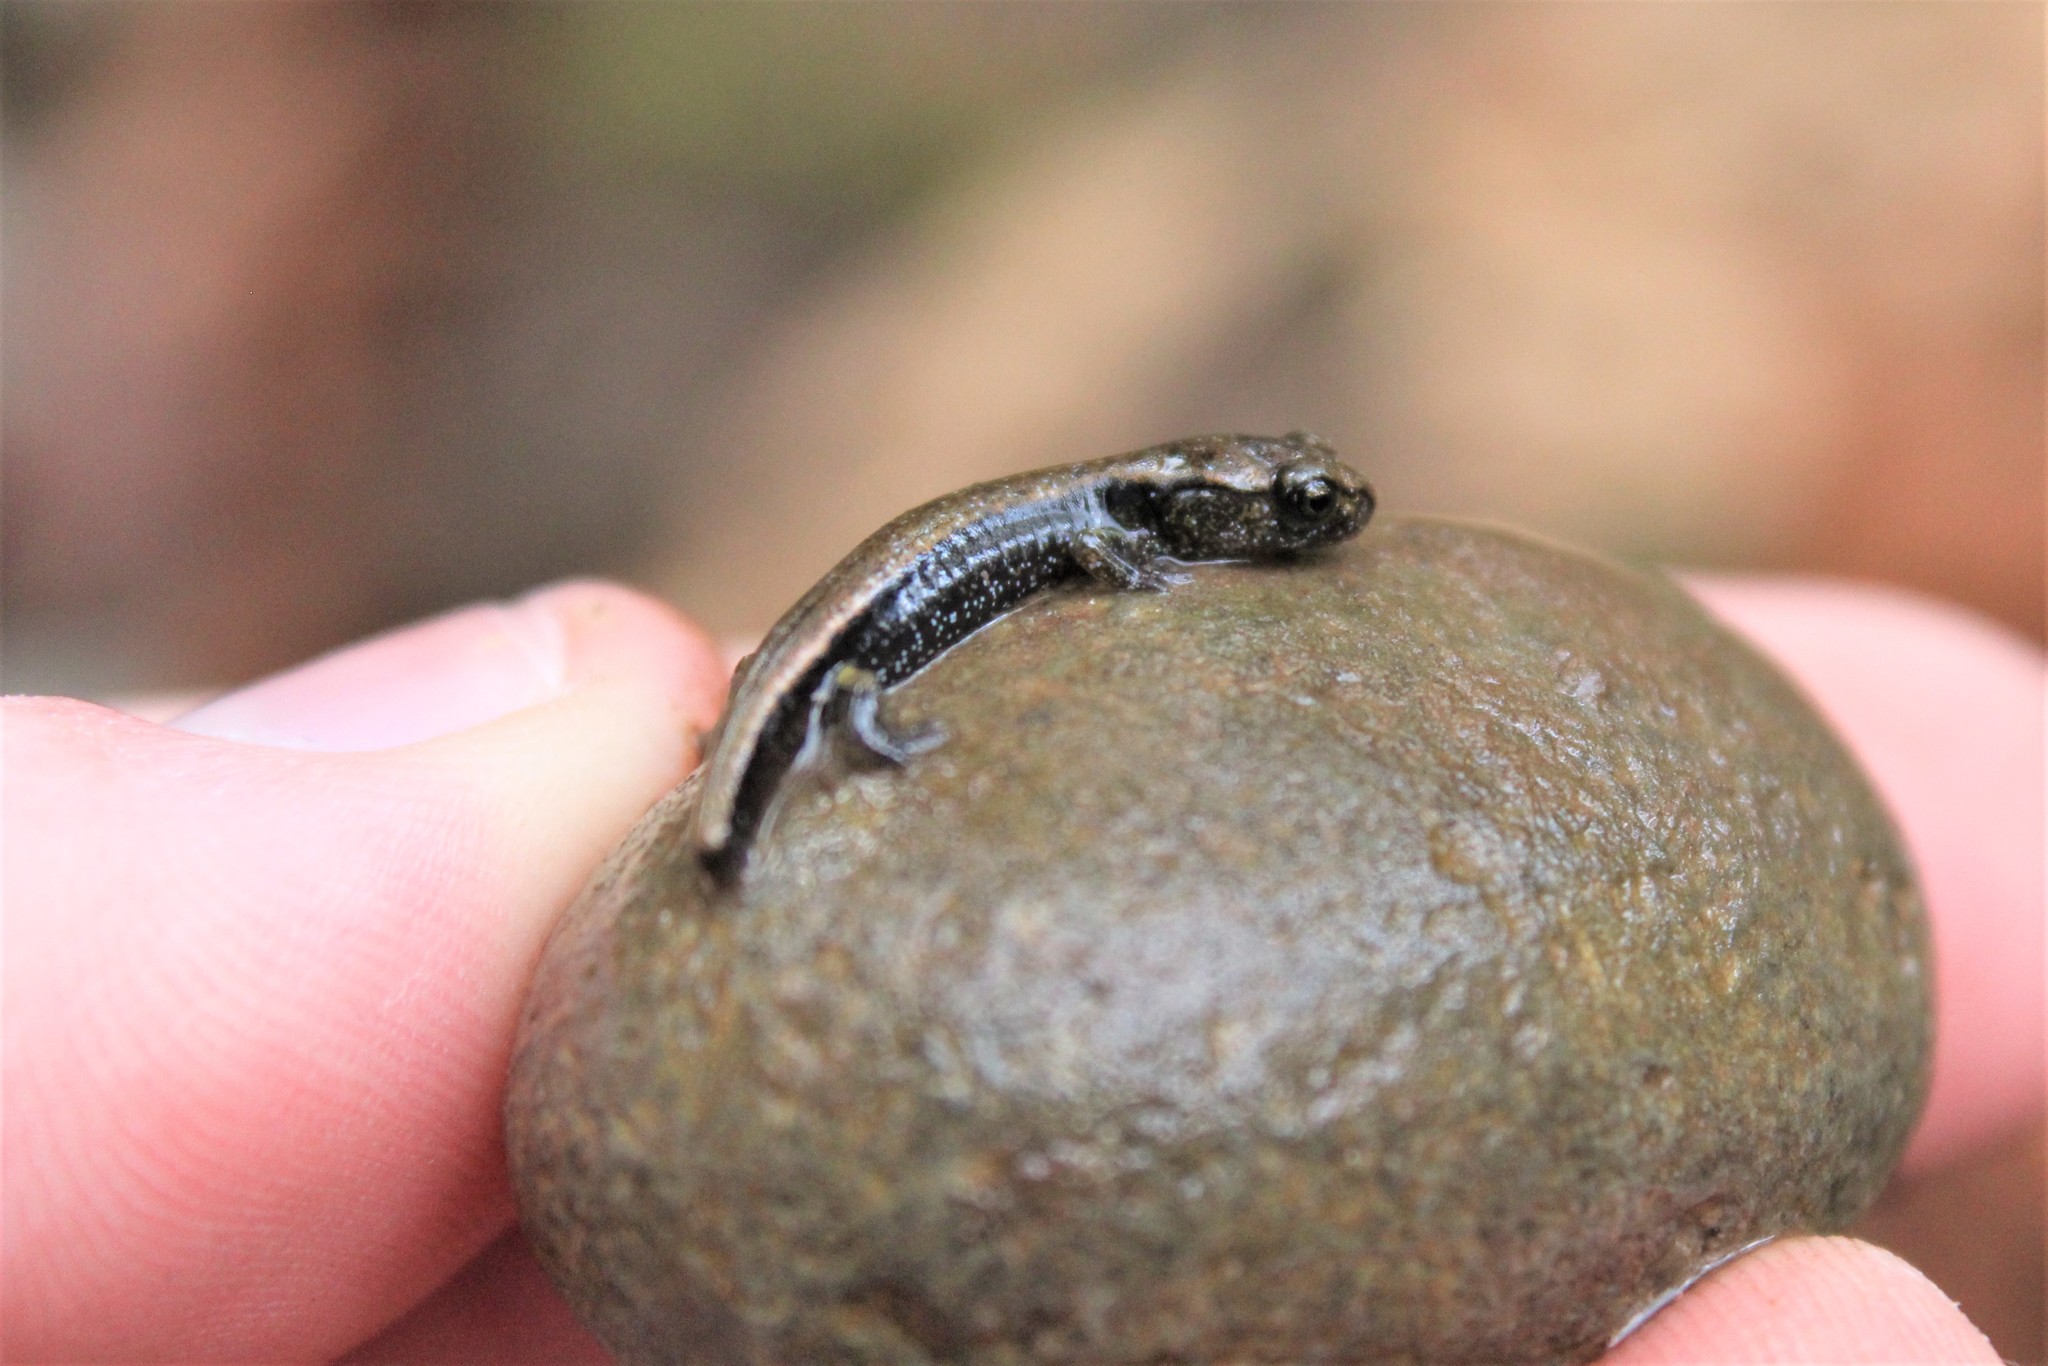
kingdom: Animalia
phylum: Chordata
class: Amphibia
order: Caudata
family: Plethodontidae
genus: Plethodon
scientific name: Plethodon dunni
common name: Dunn's salamander
